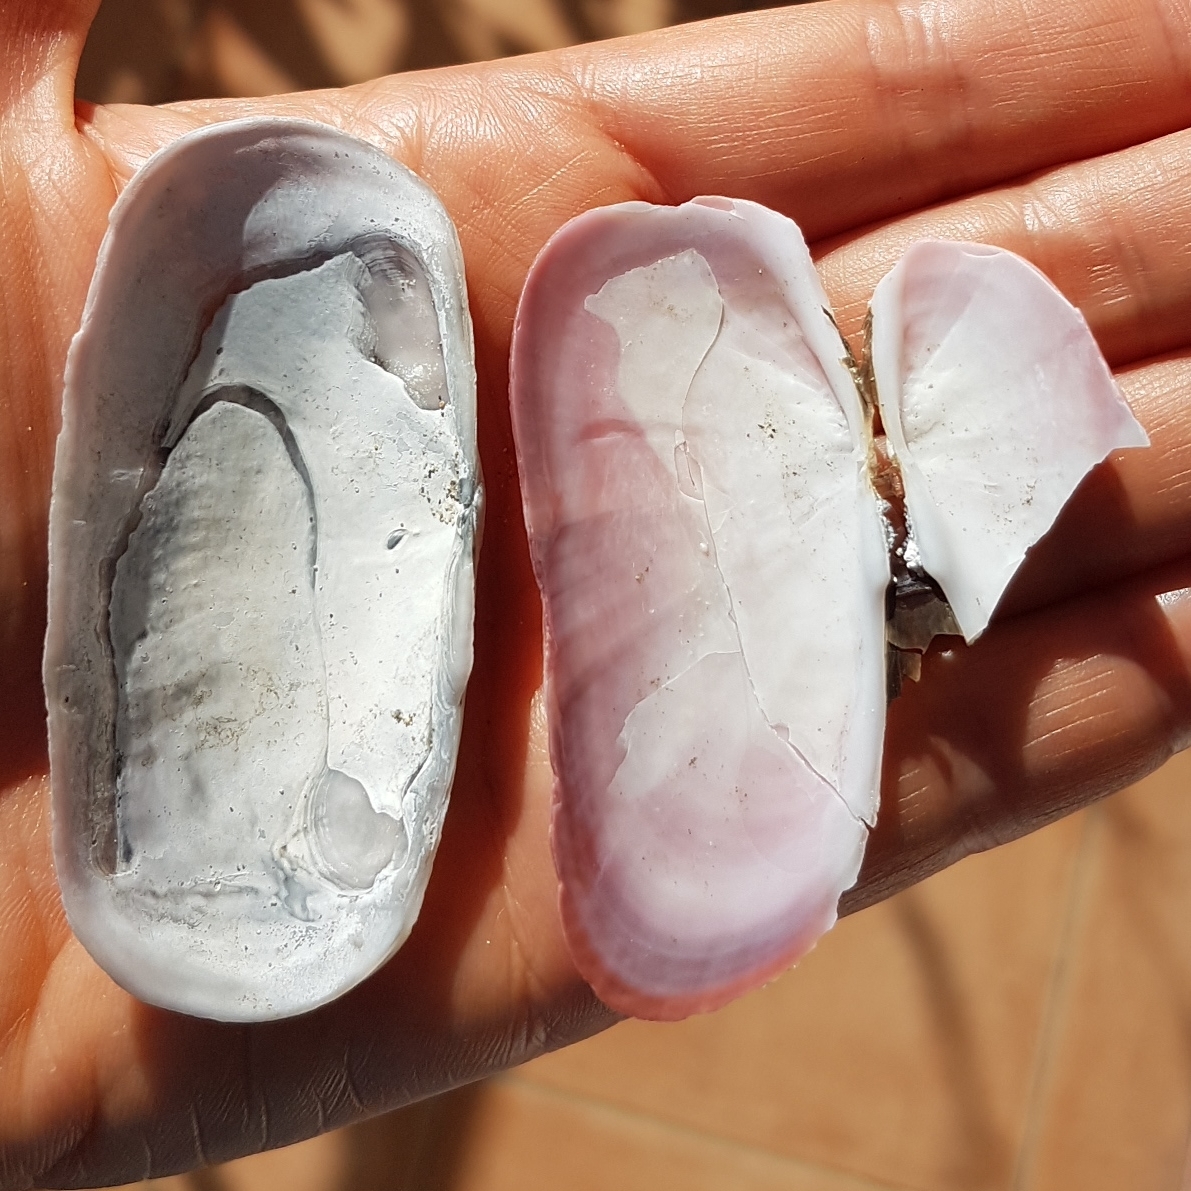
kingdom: Animalia
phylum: Mollusca
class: Bivalvia
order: Cardiida
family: Solecurtidae
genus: Solecurtus
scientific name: Solecurtus strigilatus
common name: Rosy razor clam
